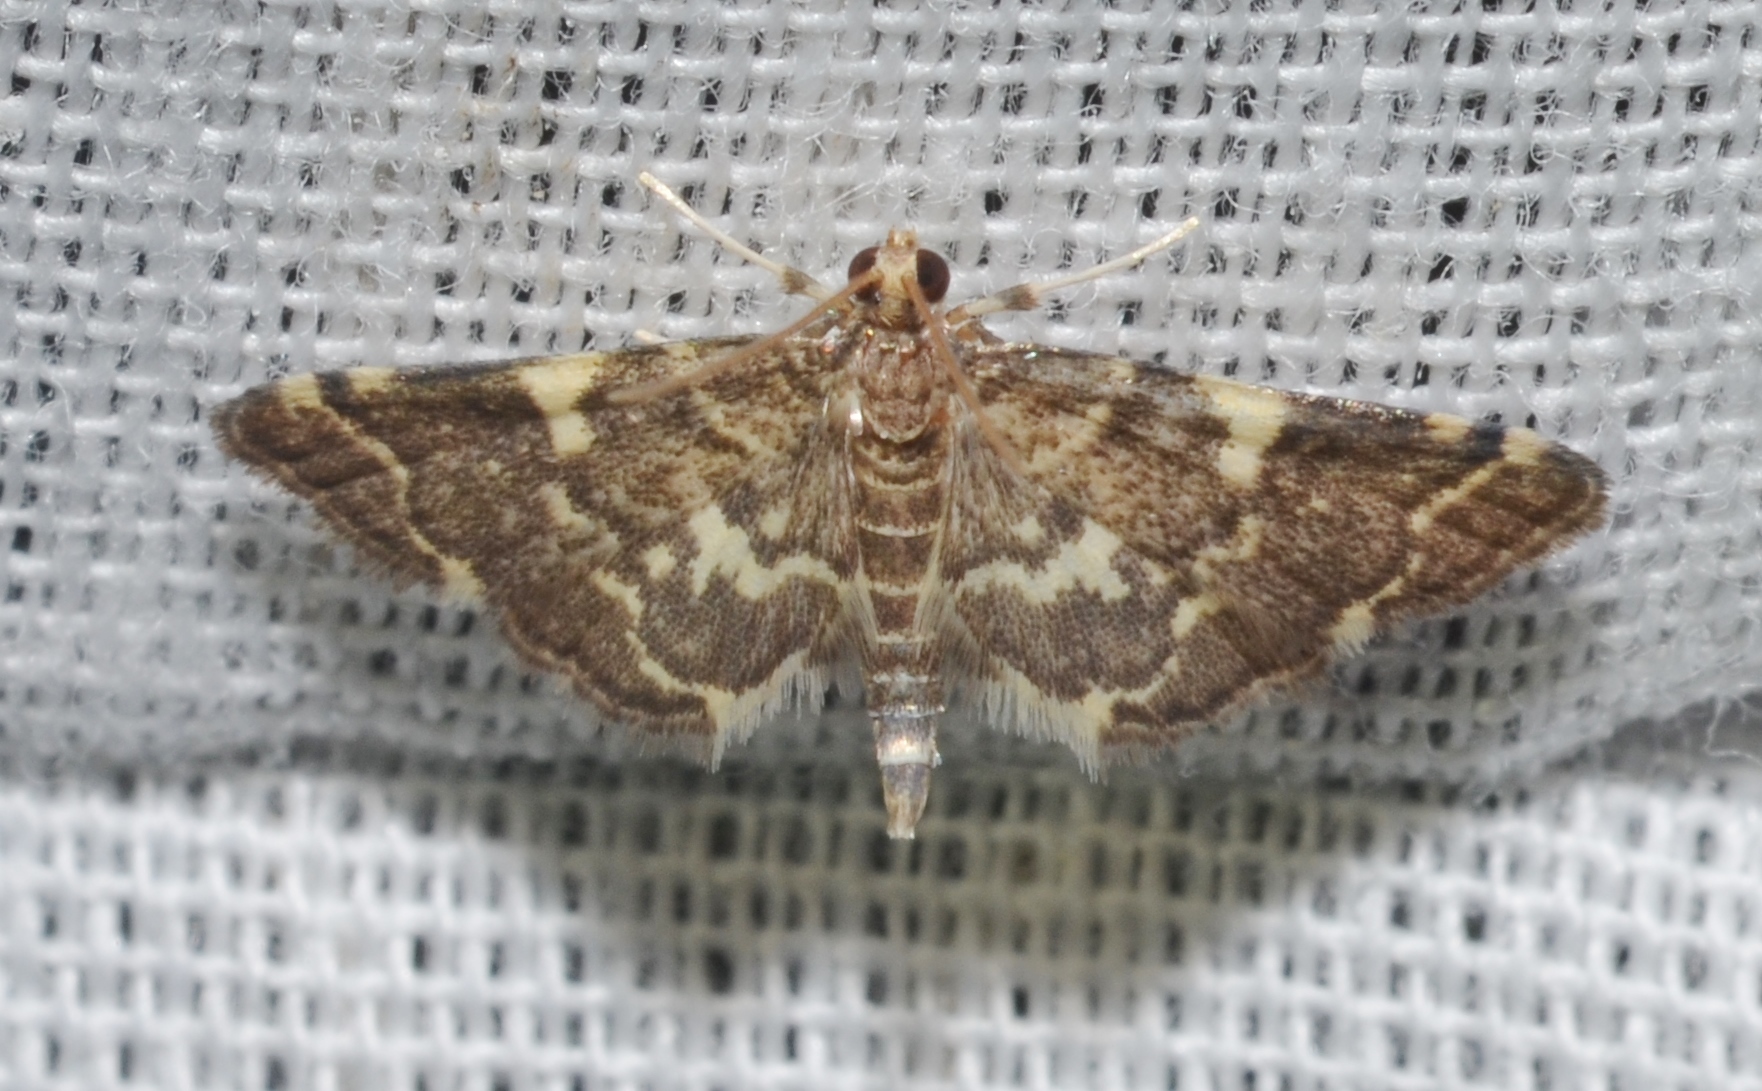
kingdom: Animalia
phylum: Arthropoda
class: Insecta
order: Lepidoptera
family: Crambidae
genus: Anageshna
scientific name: Anageshna primordialis
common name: Yellow-spotted webworm moth
